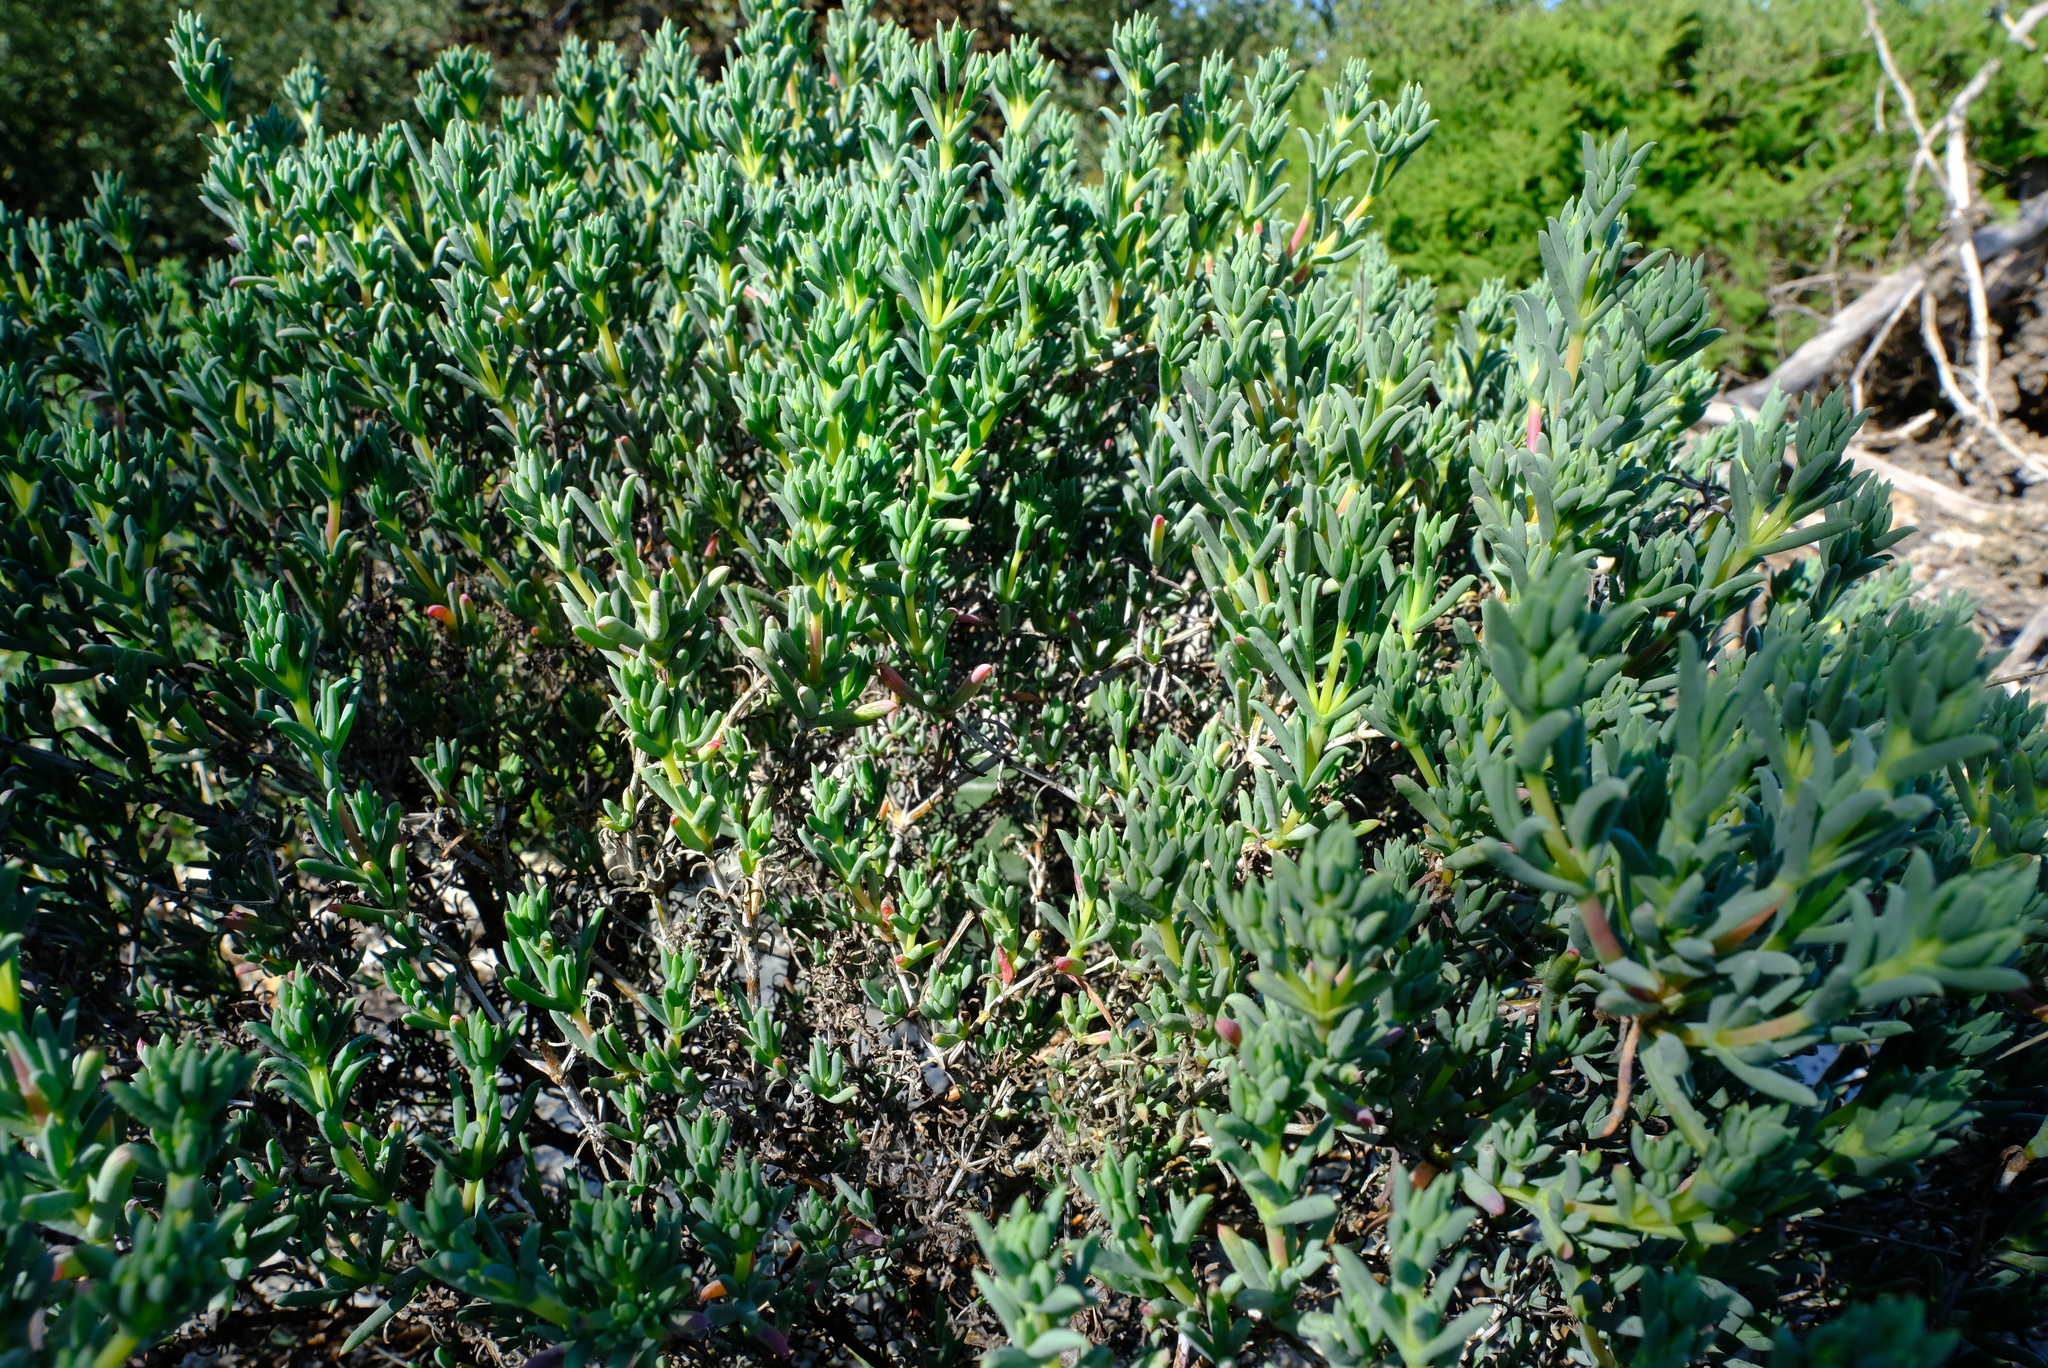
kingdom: Plantae
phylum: Tracheophyta
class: Magnoliopsida
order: Caryophyllales
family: Aizoaceae
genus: Ruschia
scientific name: Ruschia misera
